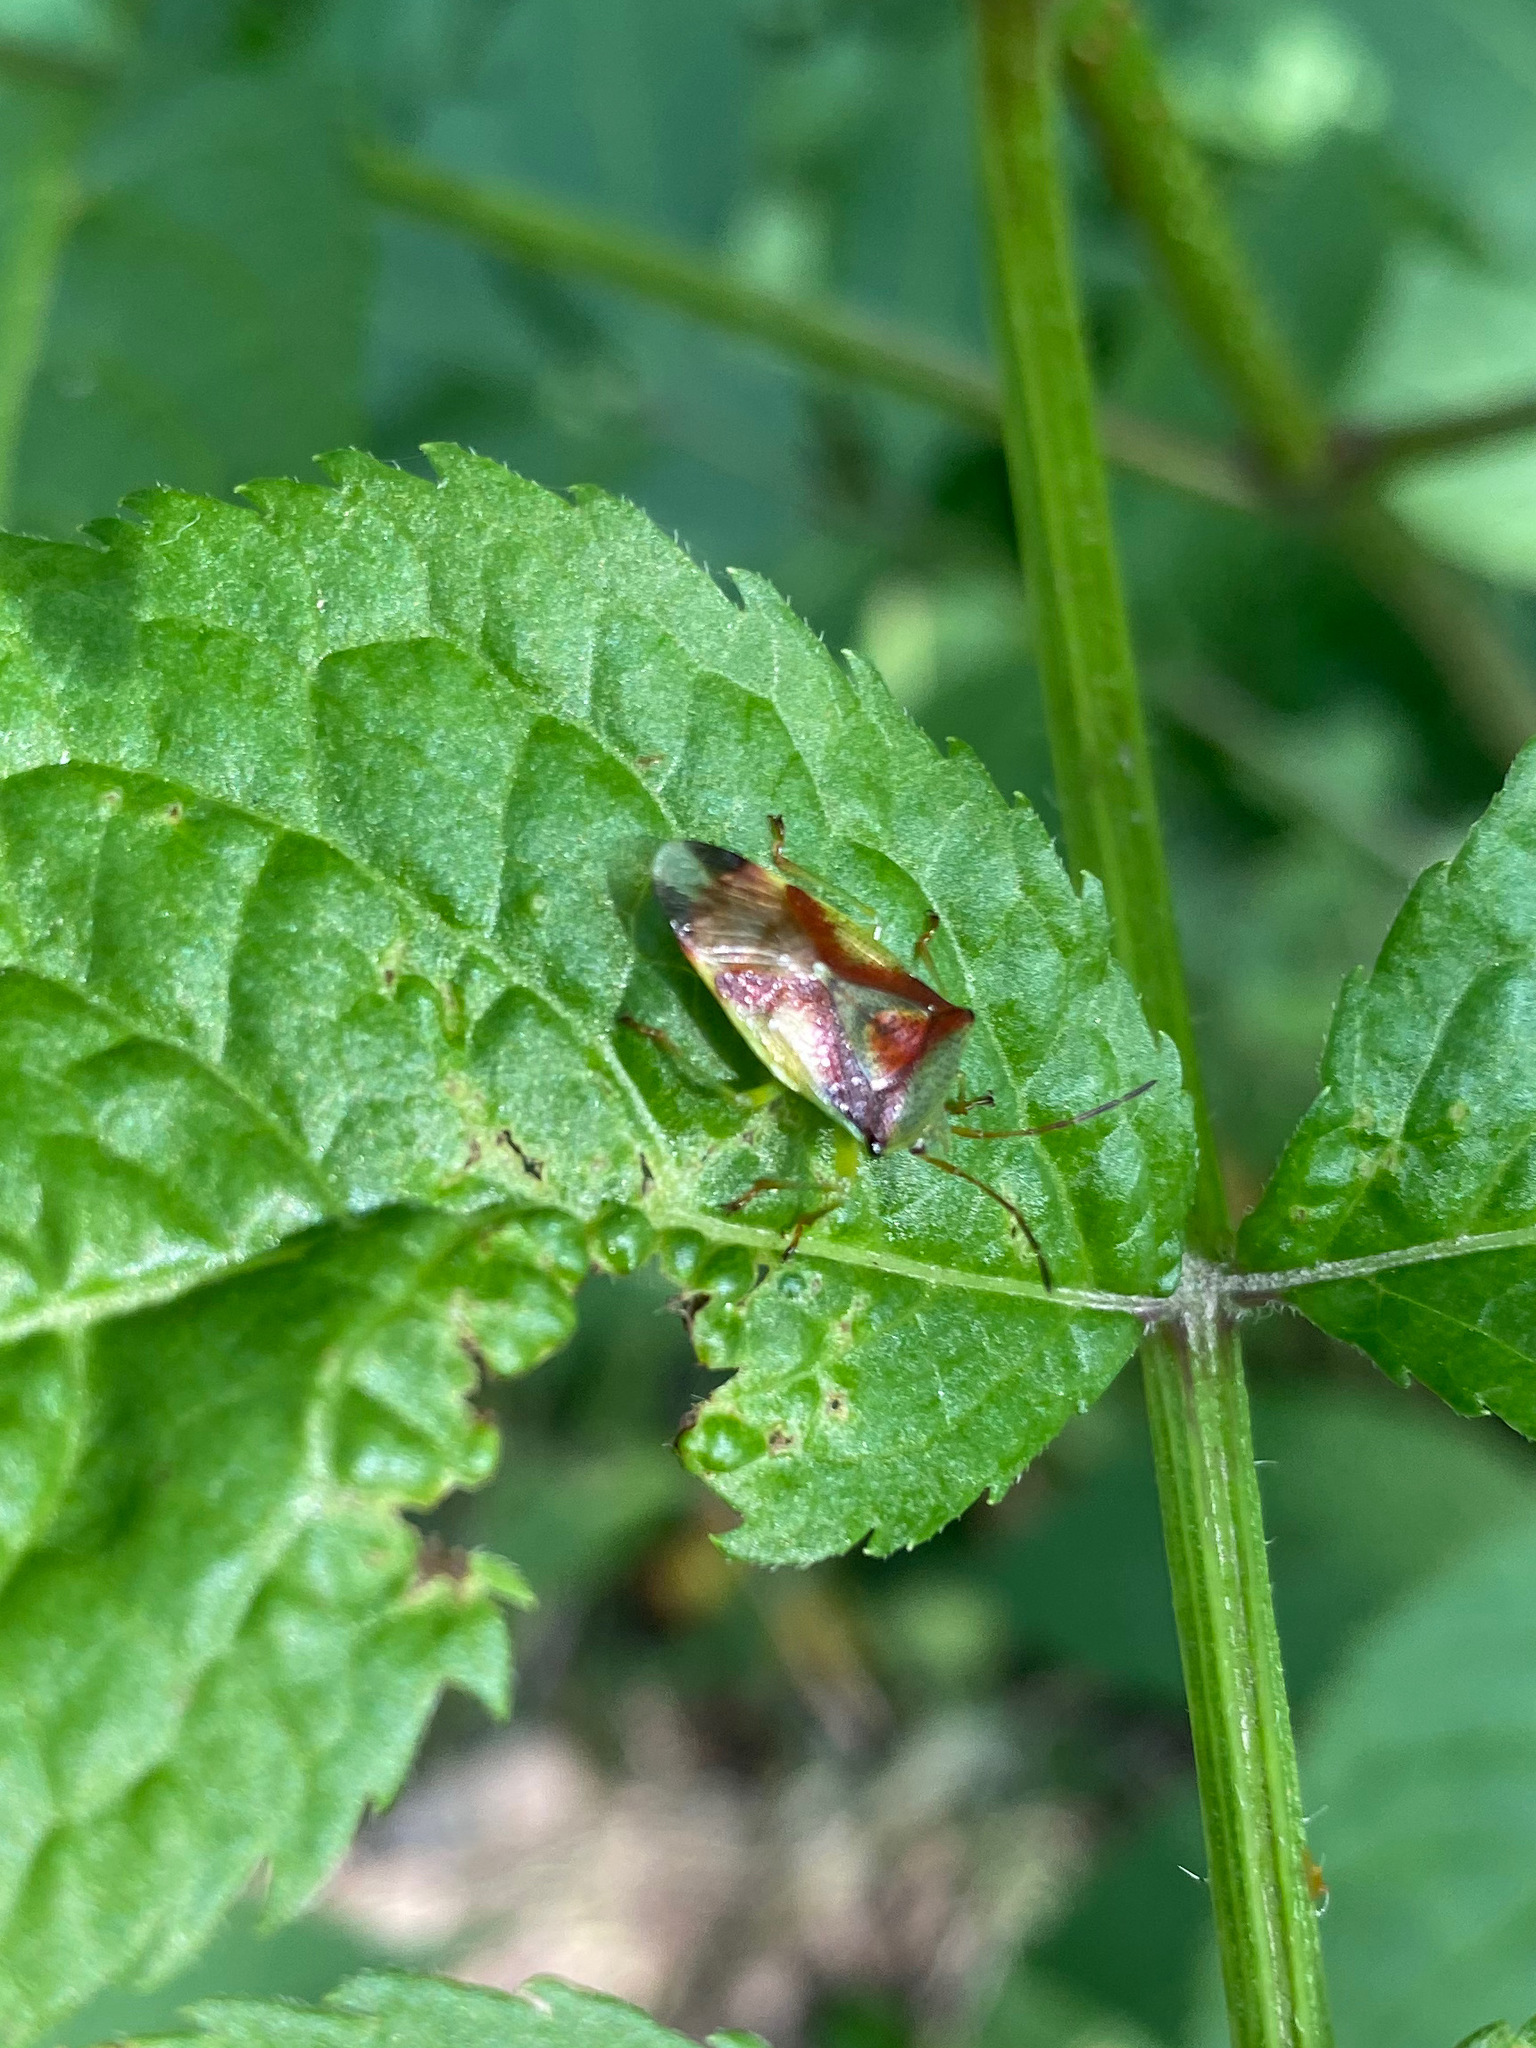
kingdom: Animalia
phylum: Arthropoda
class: Insecta
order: Hemiptera
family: Acanthosomatidae
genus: Elasmostethus
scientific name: Elasmostethus cruciatus
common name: Red-cross shield bug
